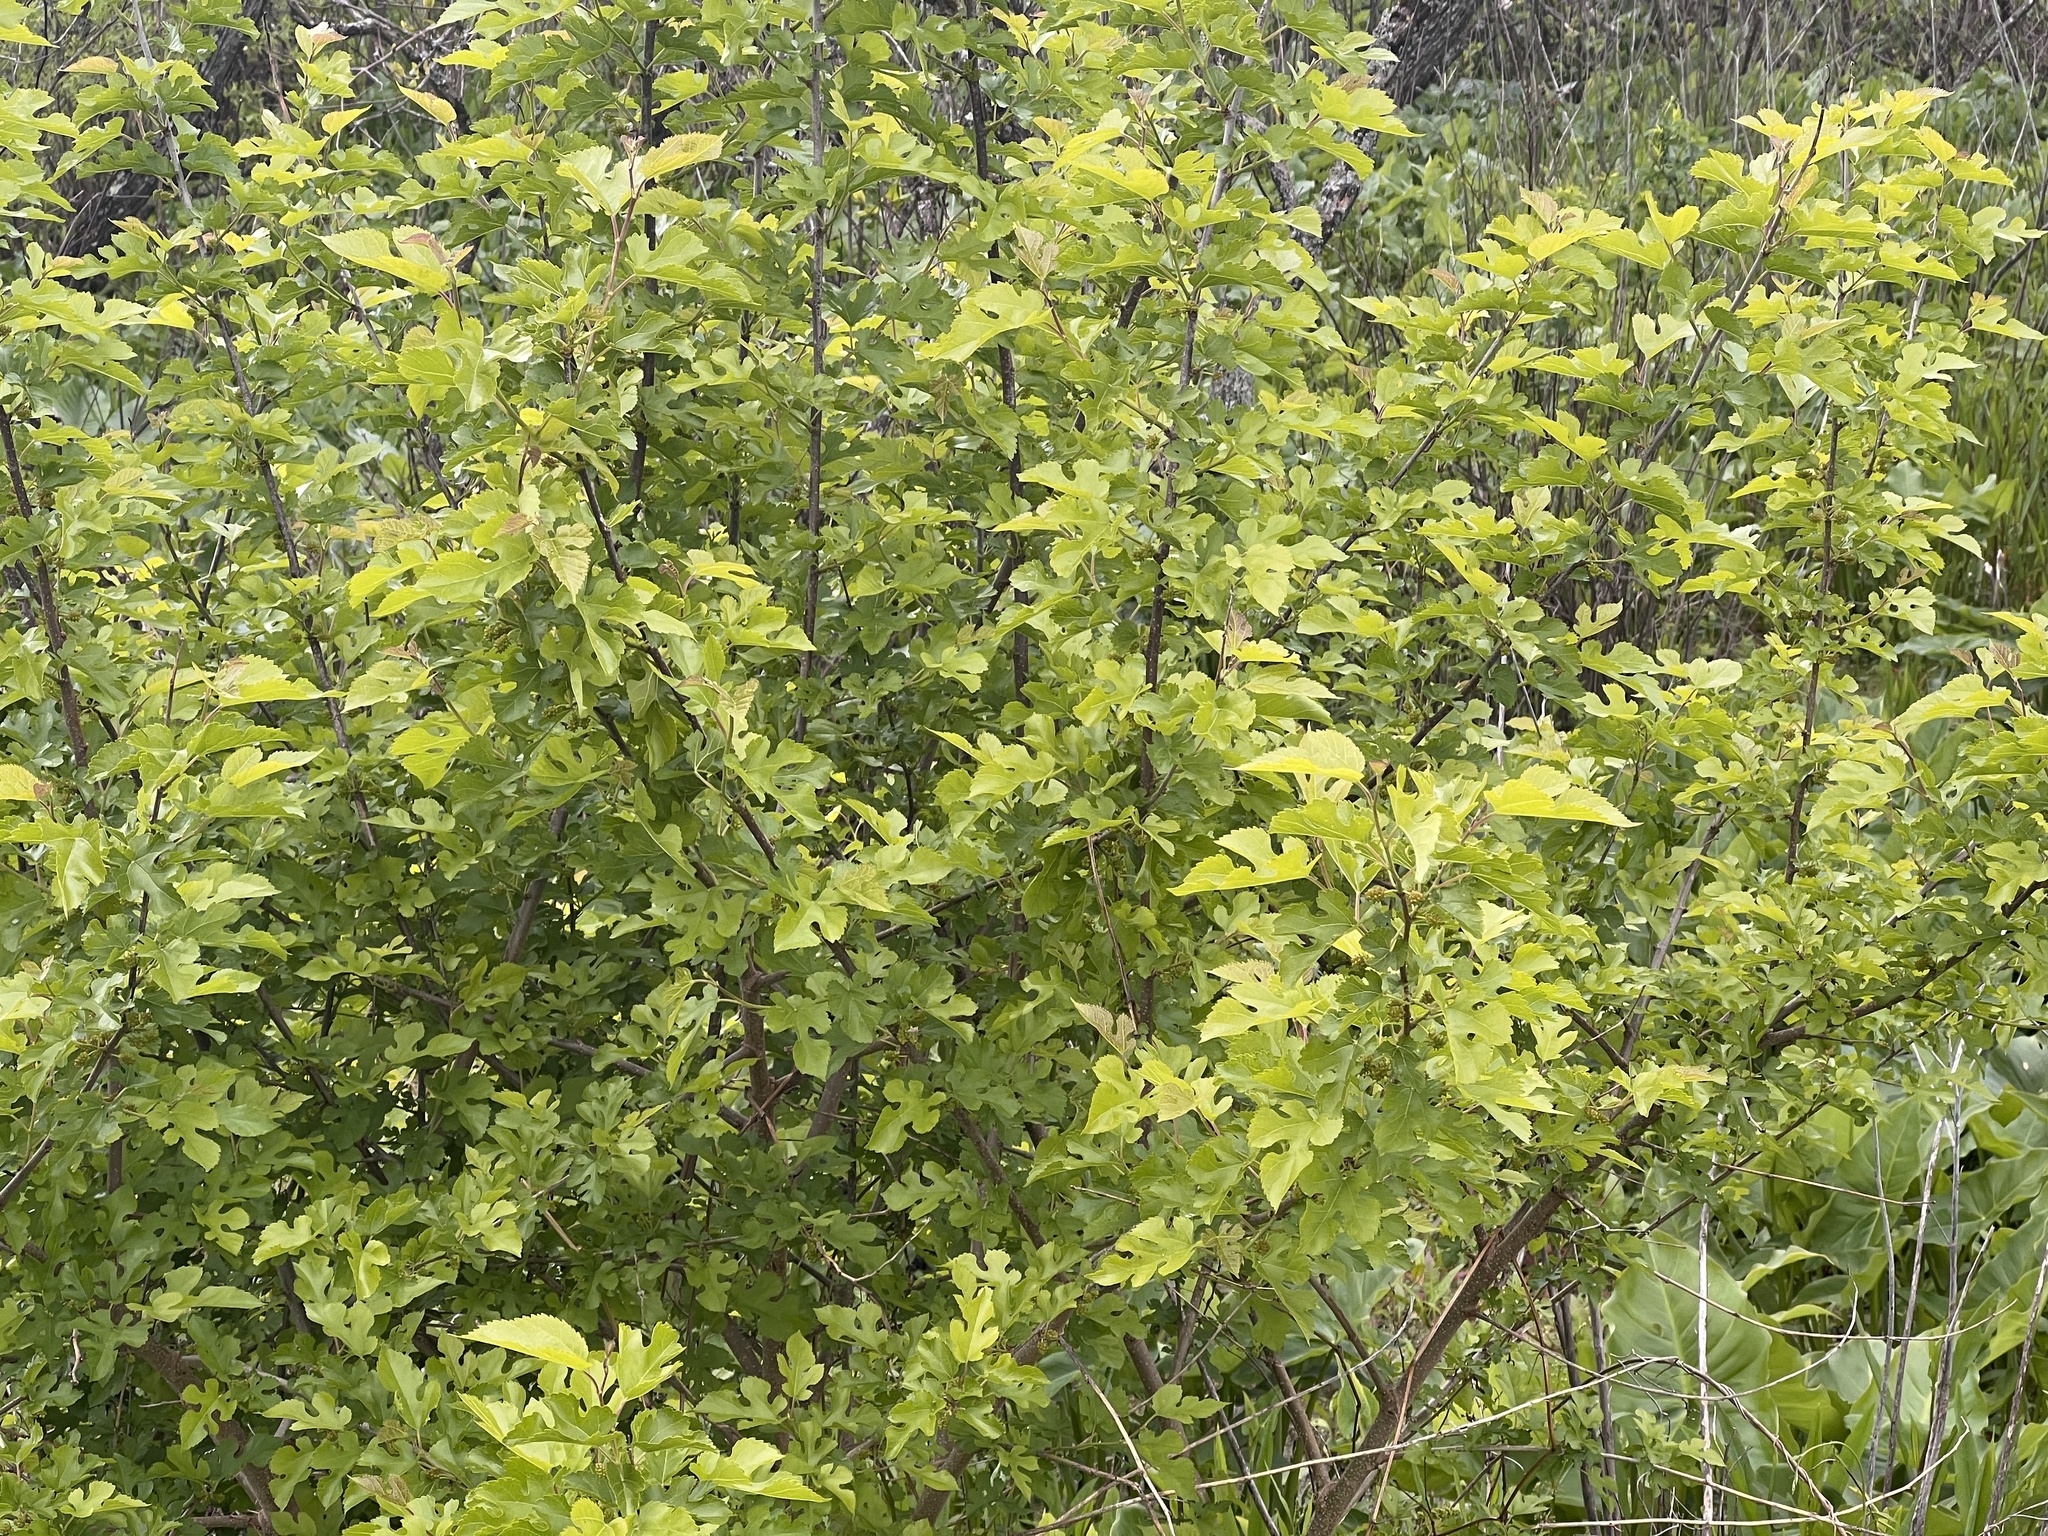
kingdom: Plantae
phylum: Tracheophyta
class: Magnoliopsida
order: Rosales
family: Moraceae
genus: Morus
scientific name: Morus alba
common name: White mulberry
